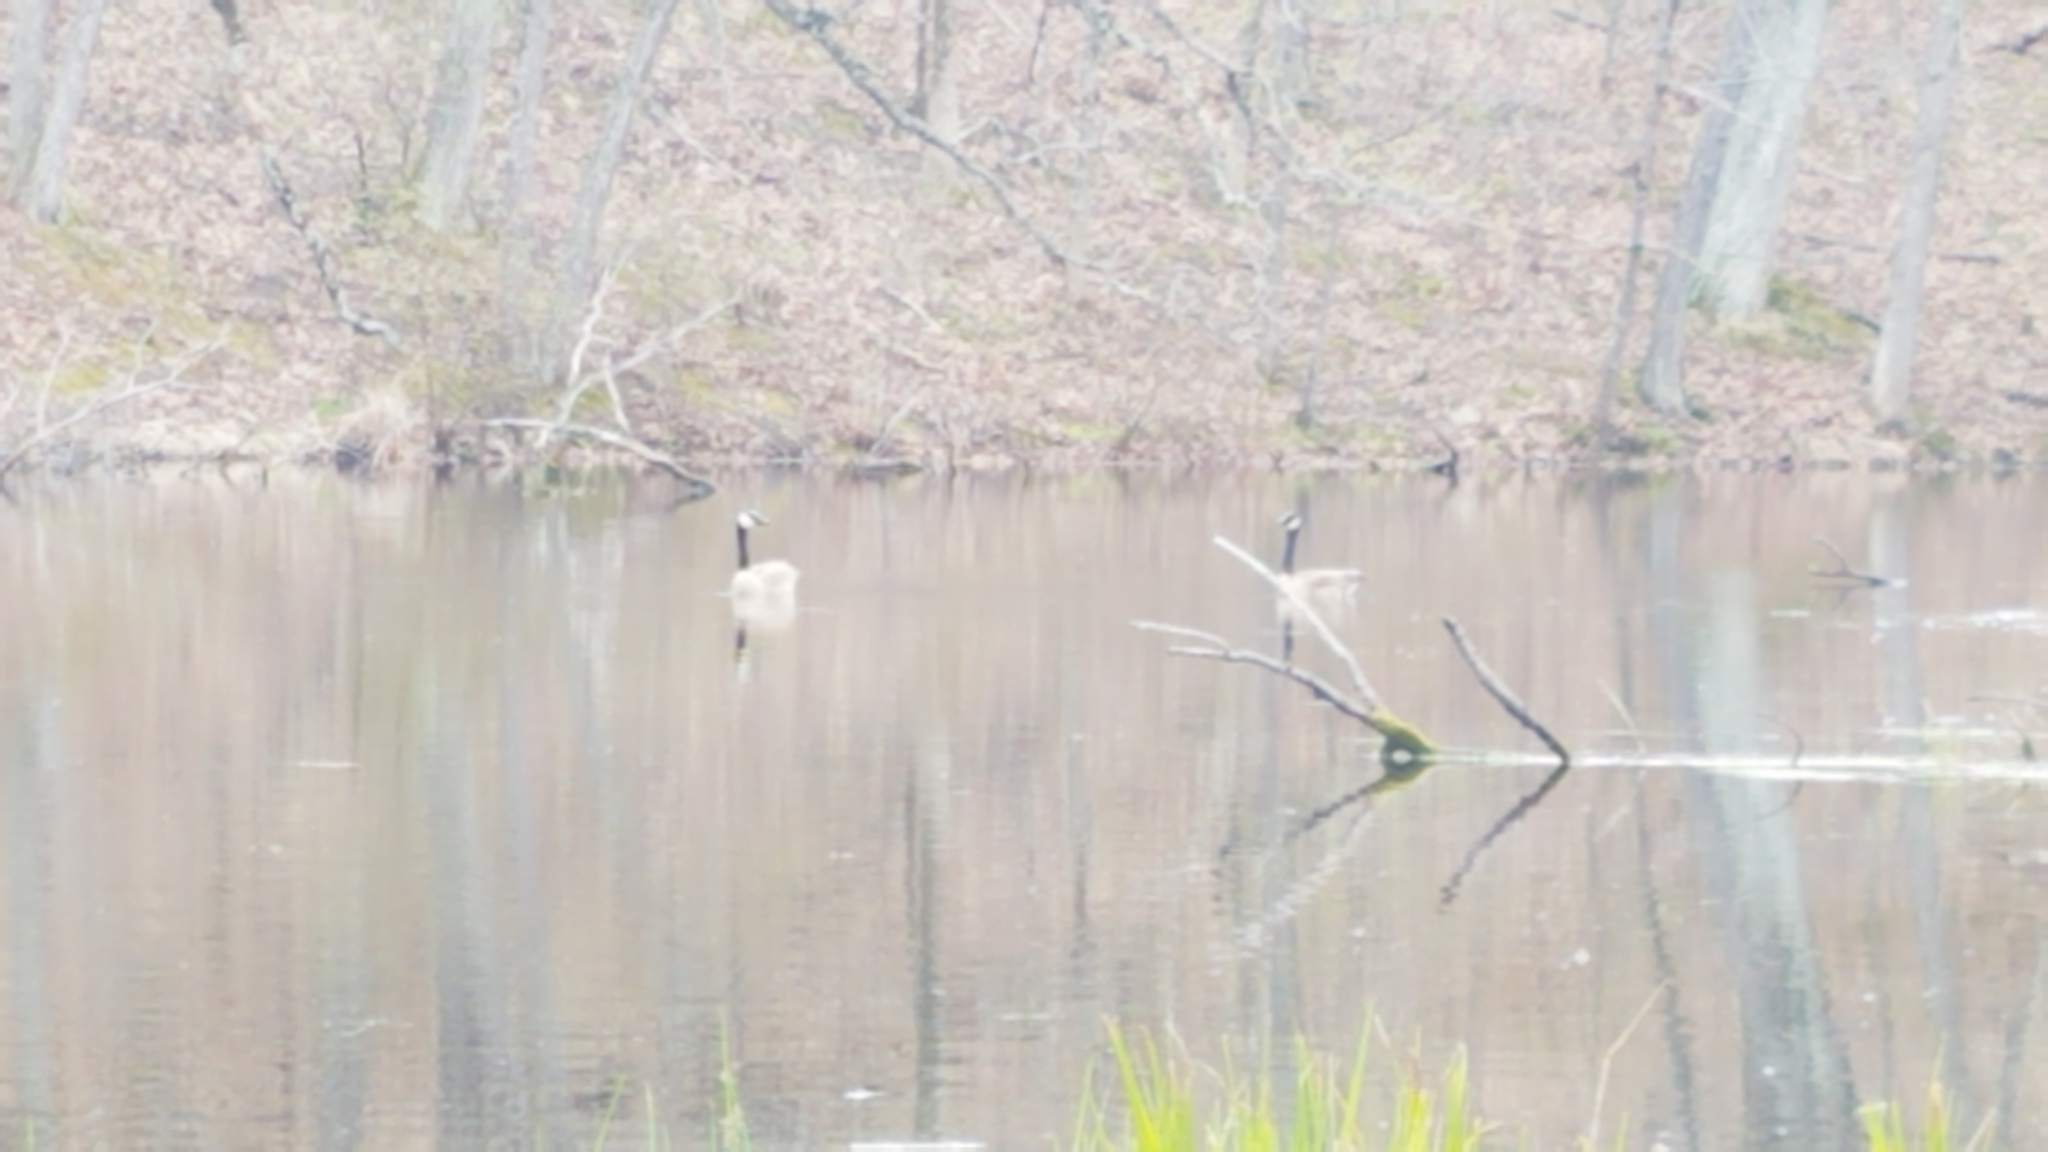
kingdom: Animalia
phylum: Chordata
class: Aves
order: Anseriformes
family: Anatidae
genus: Branta
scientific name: Branta canadensis
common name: Canada goose
